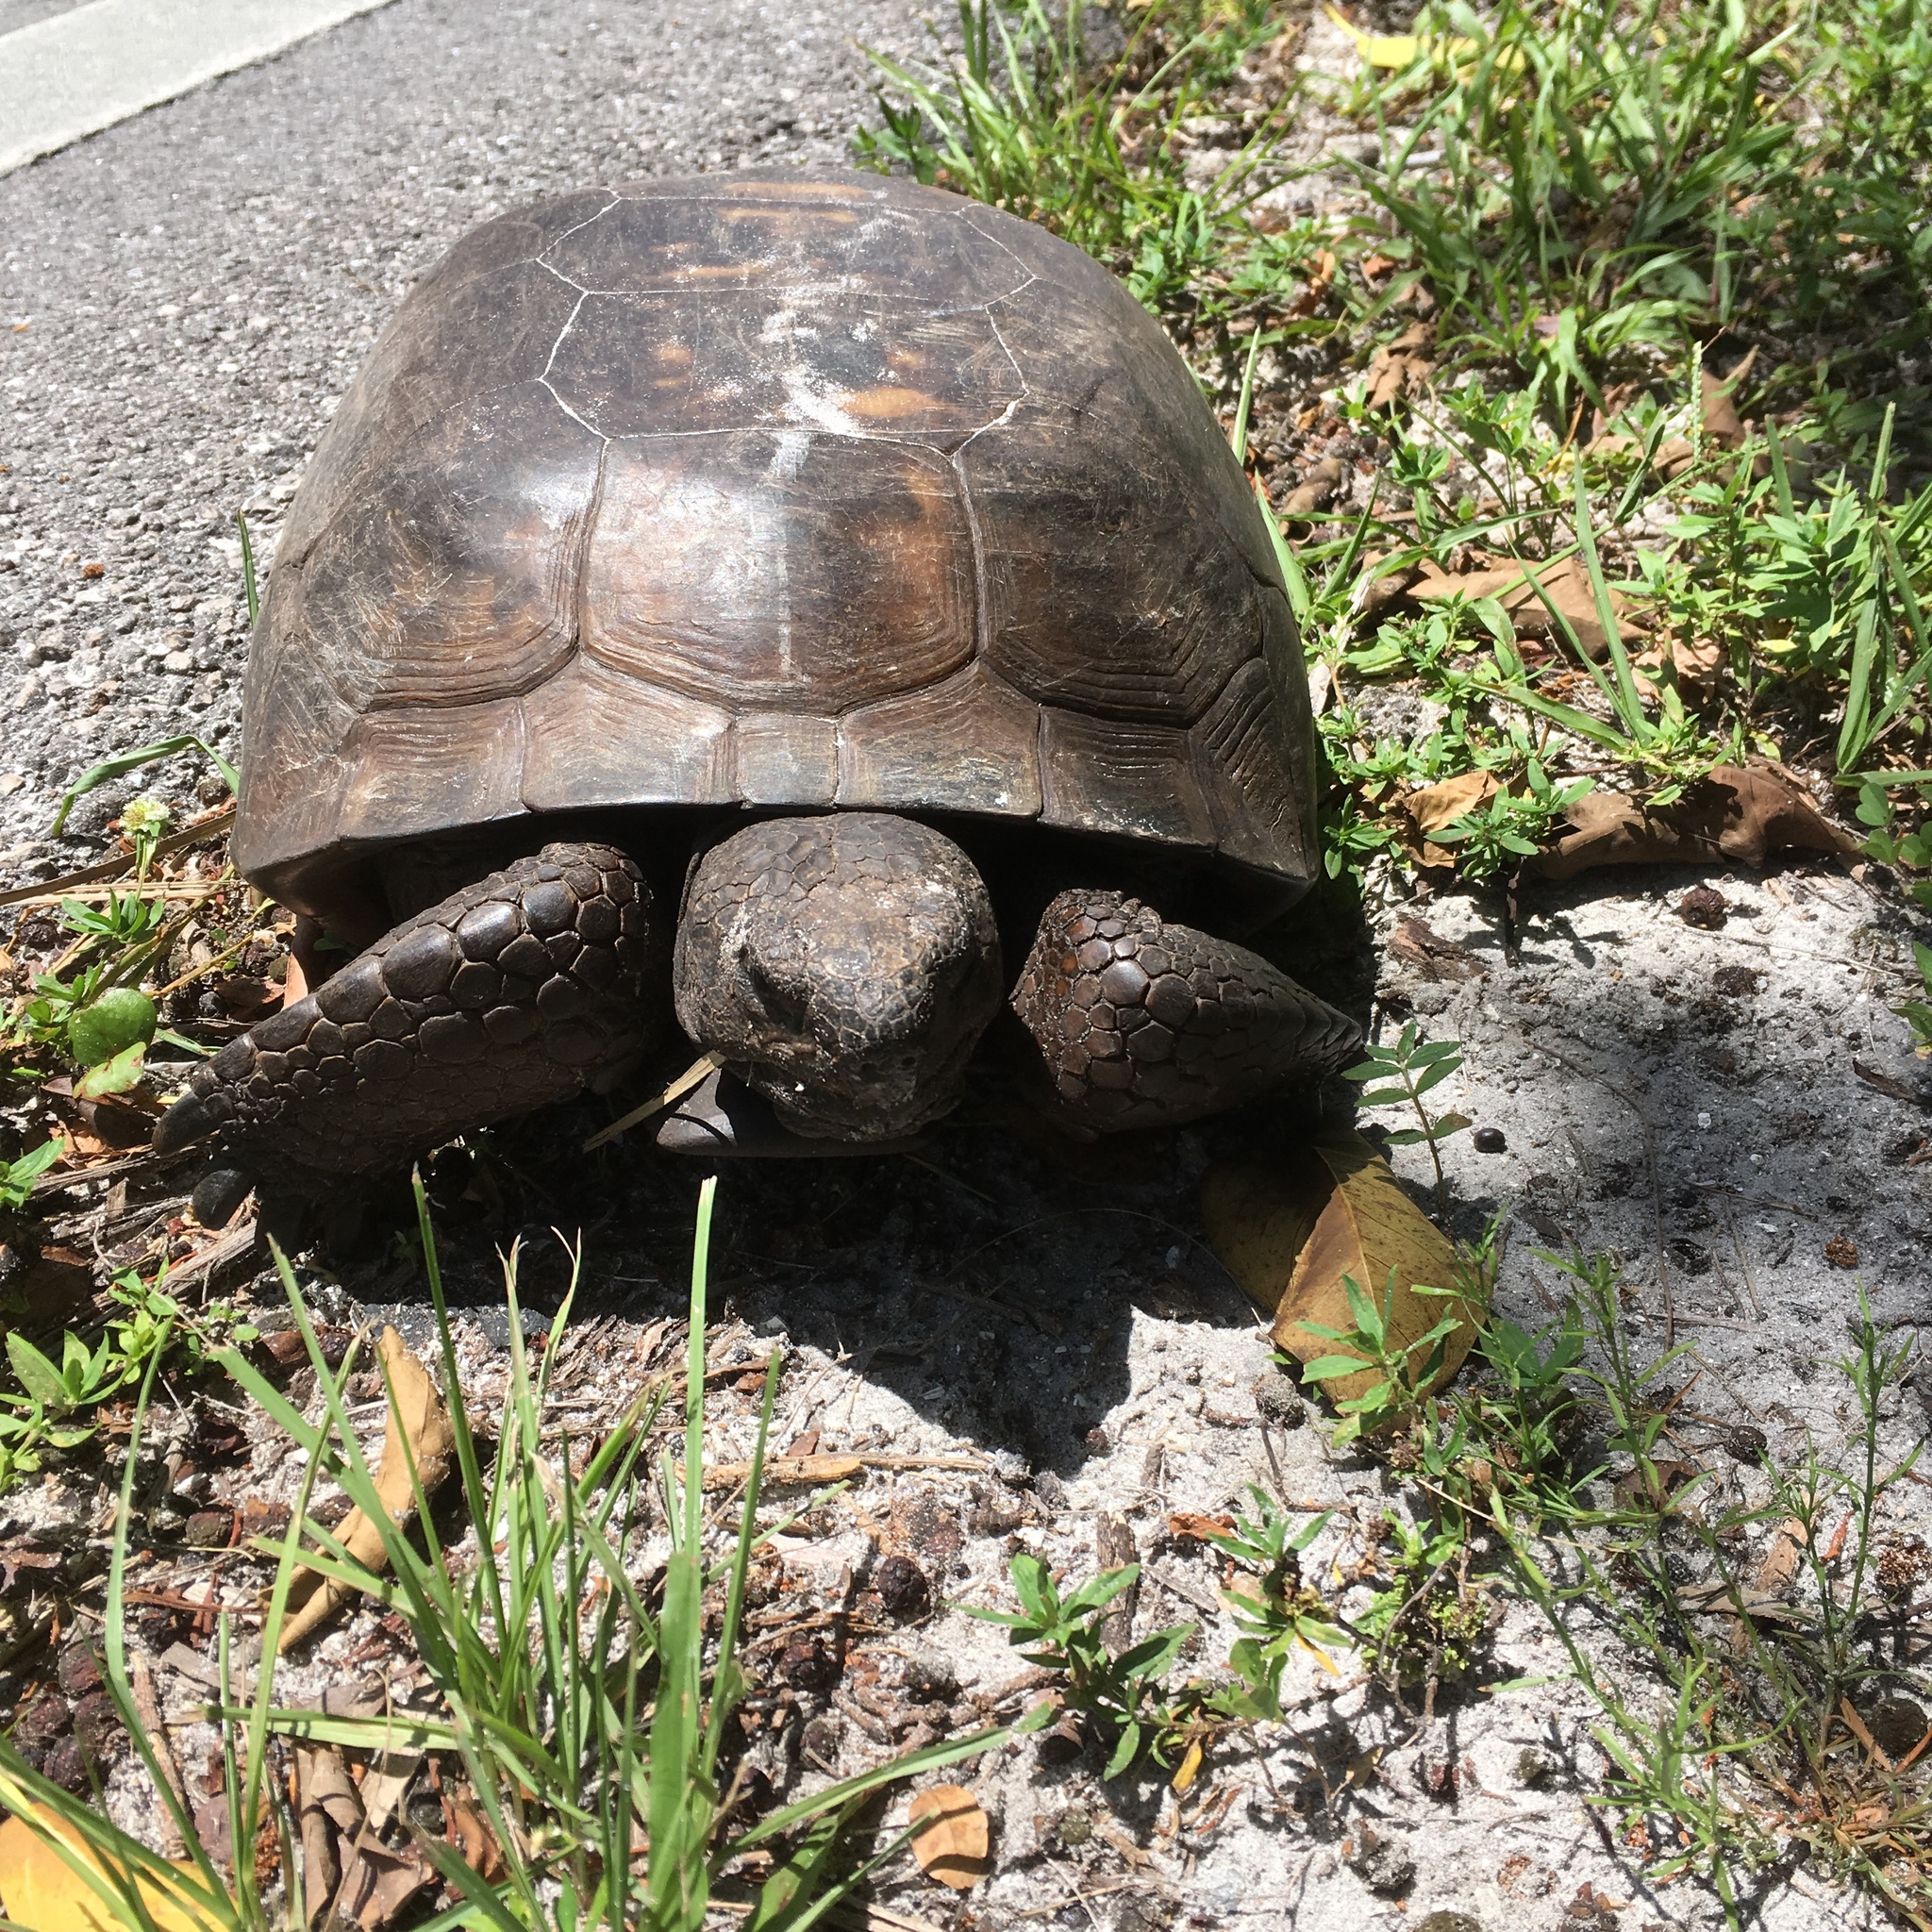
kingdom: Animalia
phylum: Chordata
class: Testudines
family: Testudinidae
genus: Gopherus
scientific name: Gopherus polyphemus
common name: Florida gopher tortoise
